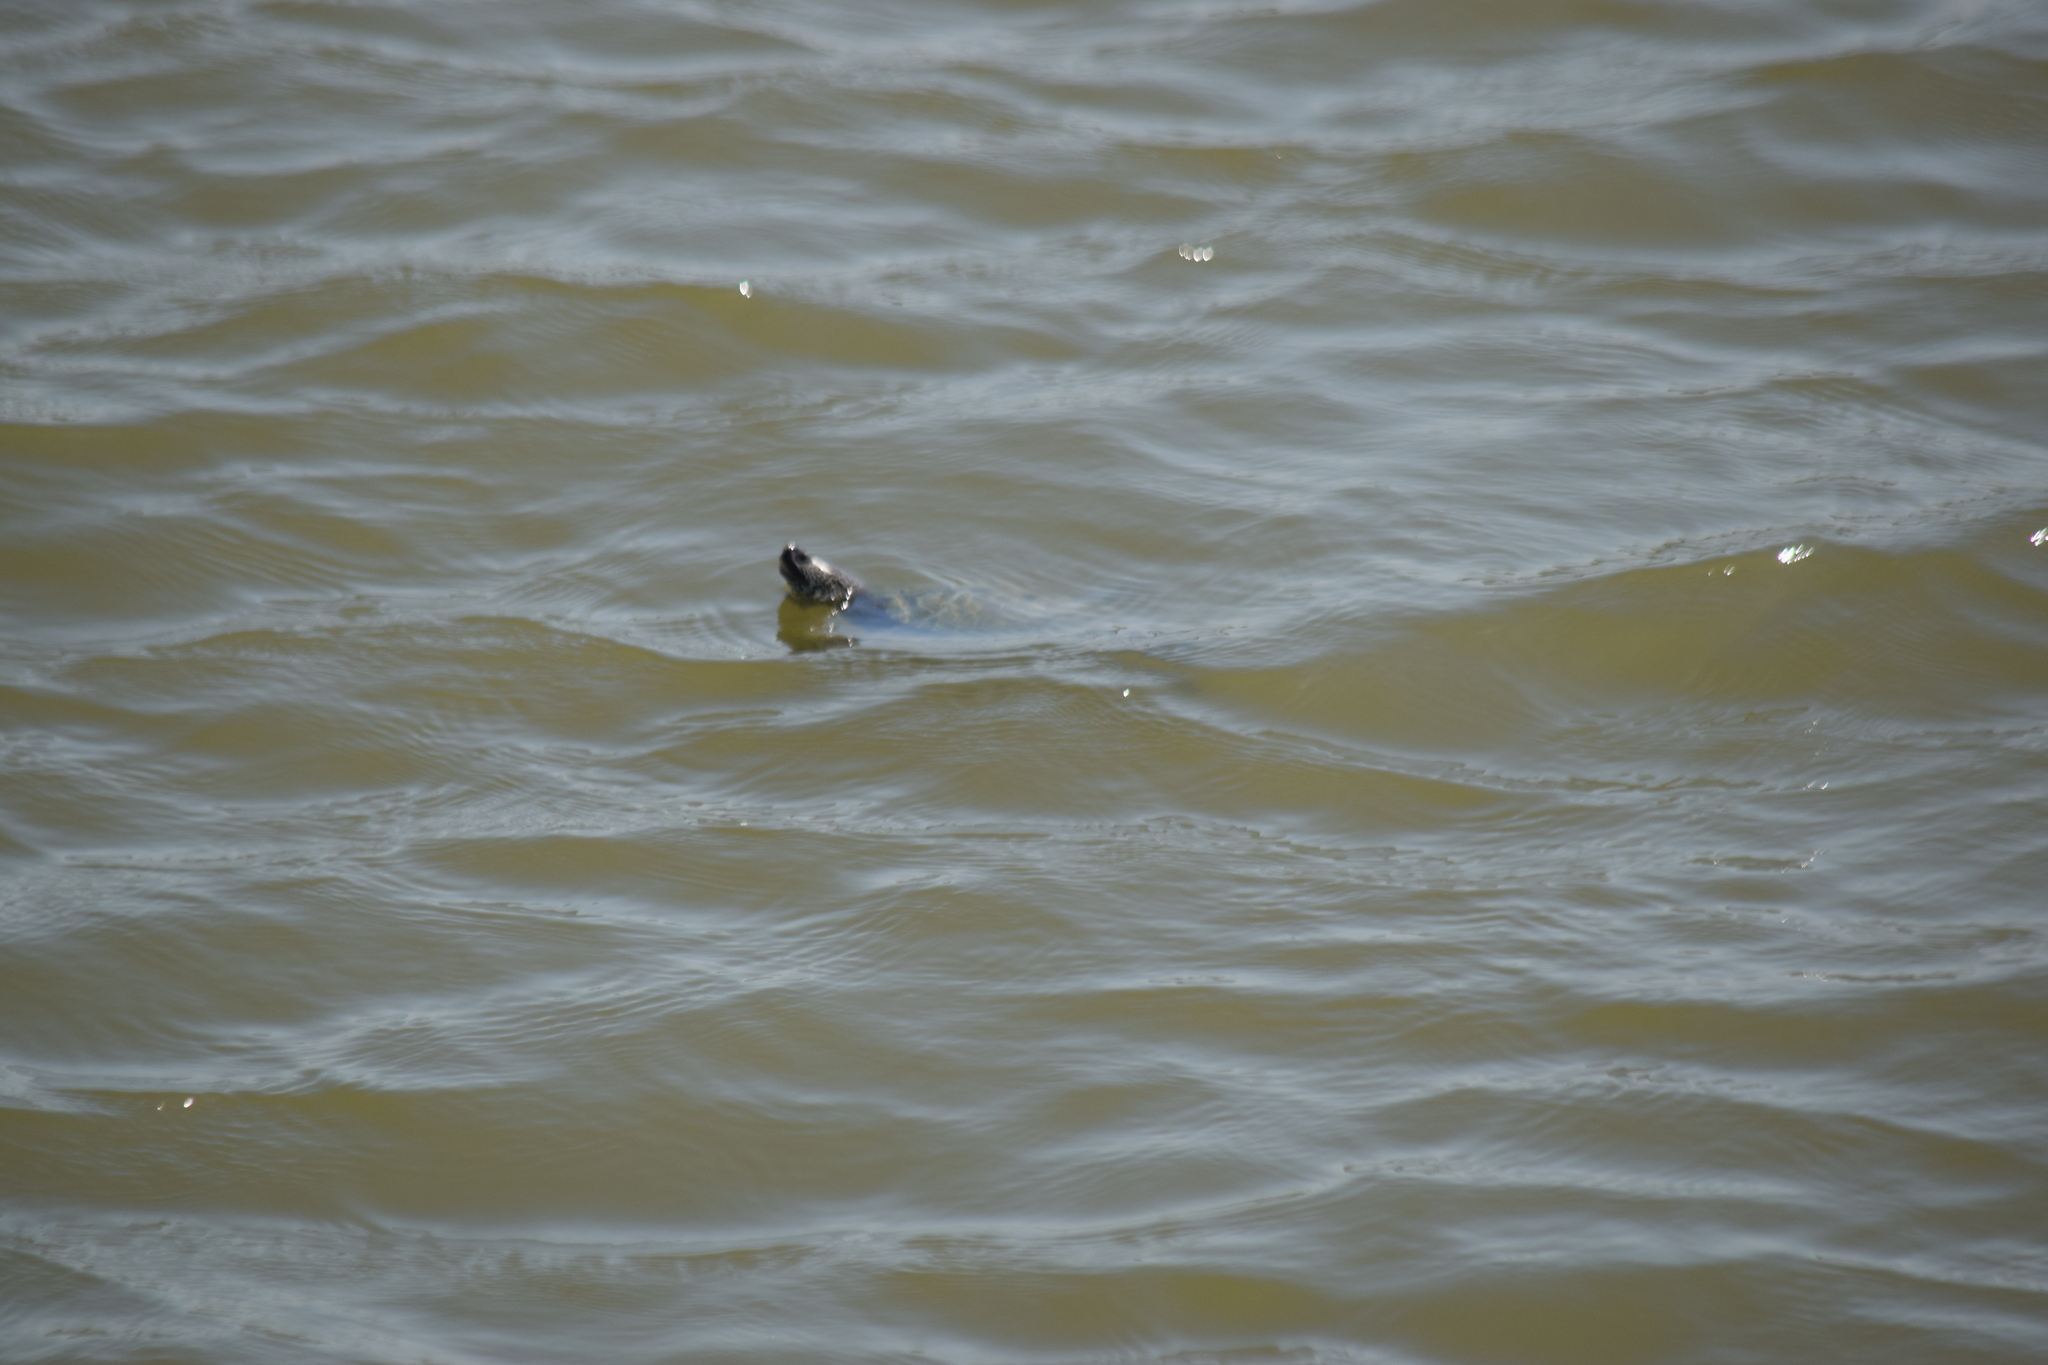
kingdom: Animalia
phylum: Chordata
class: Testudines
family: Emydidae
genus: Malaclemys
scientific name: Malaclemys terrapin
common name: Diamondback terrapin
